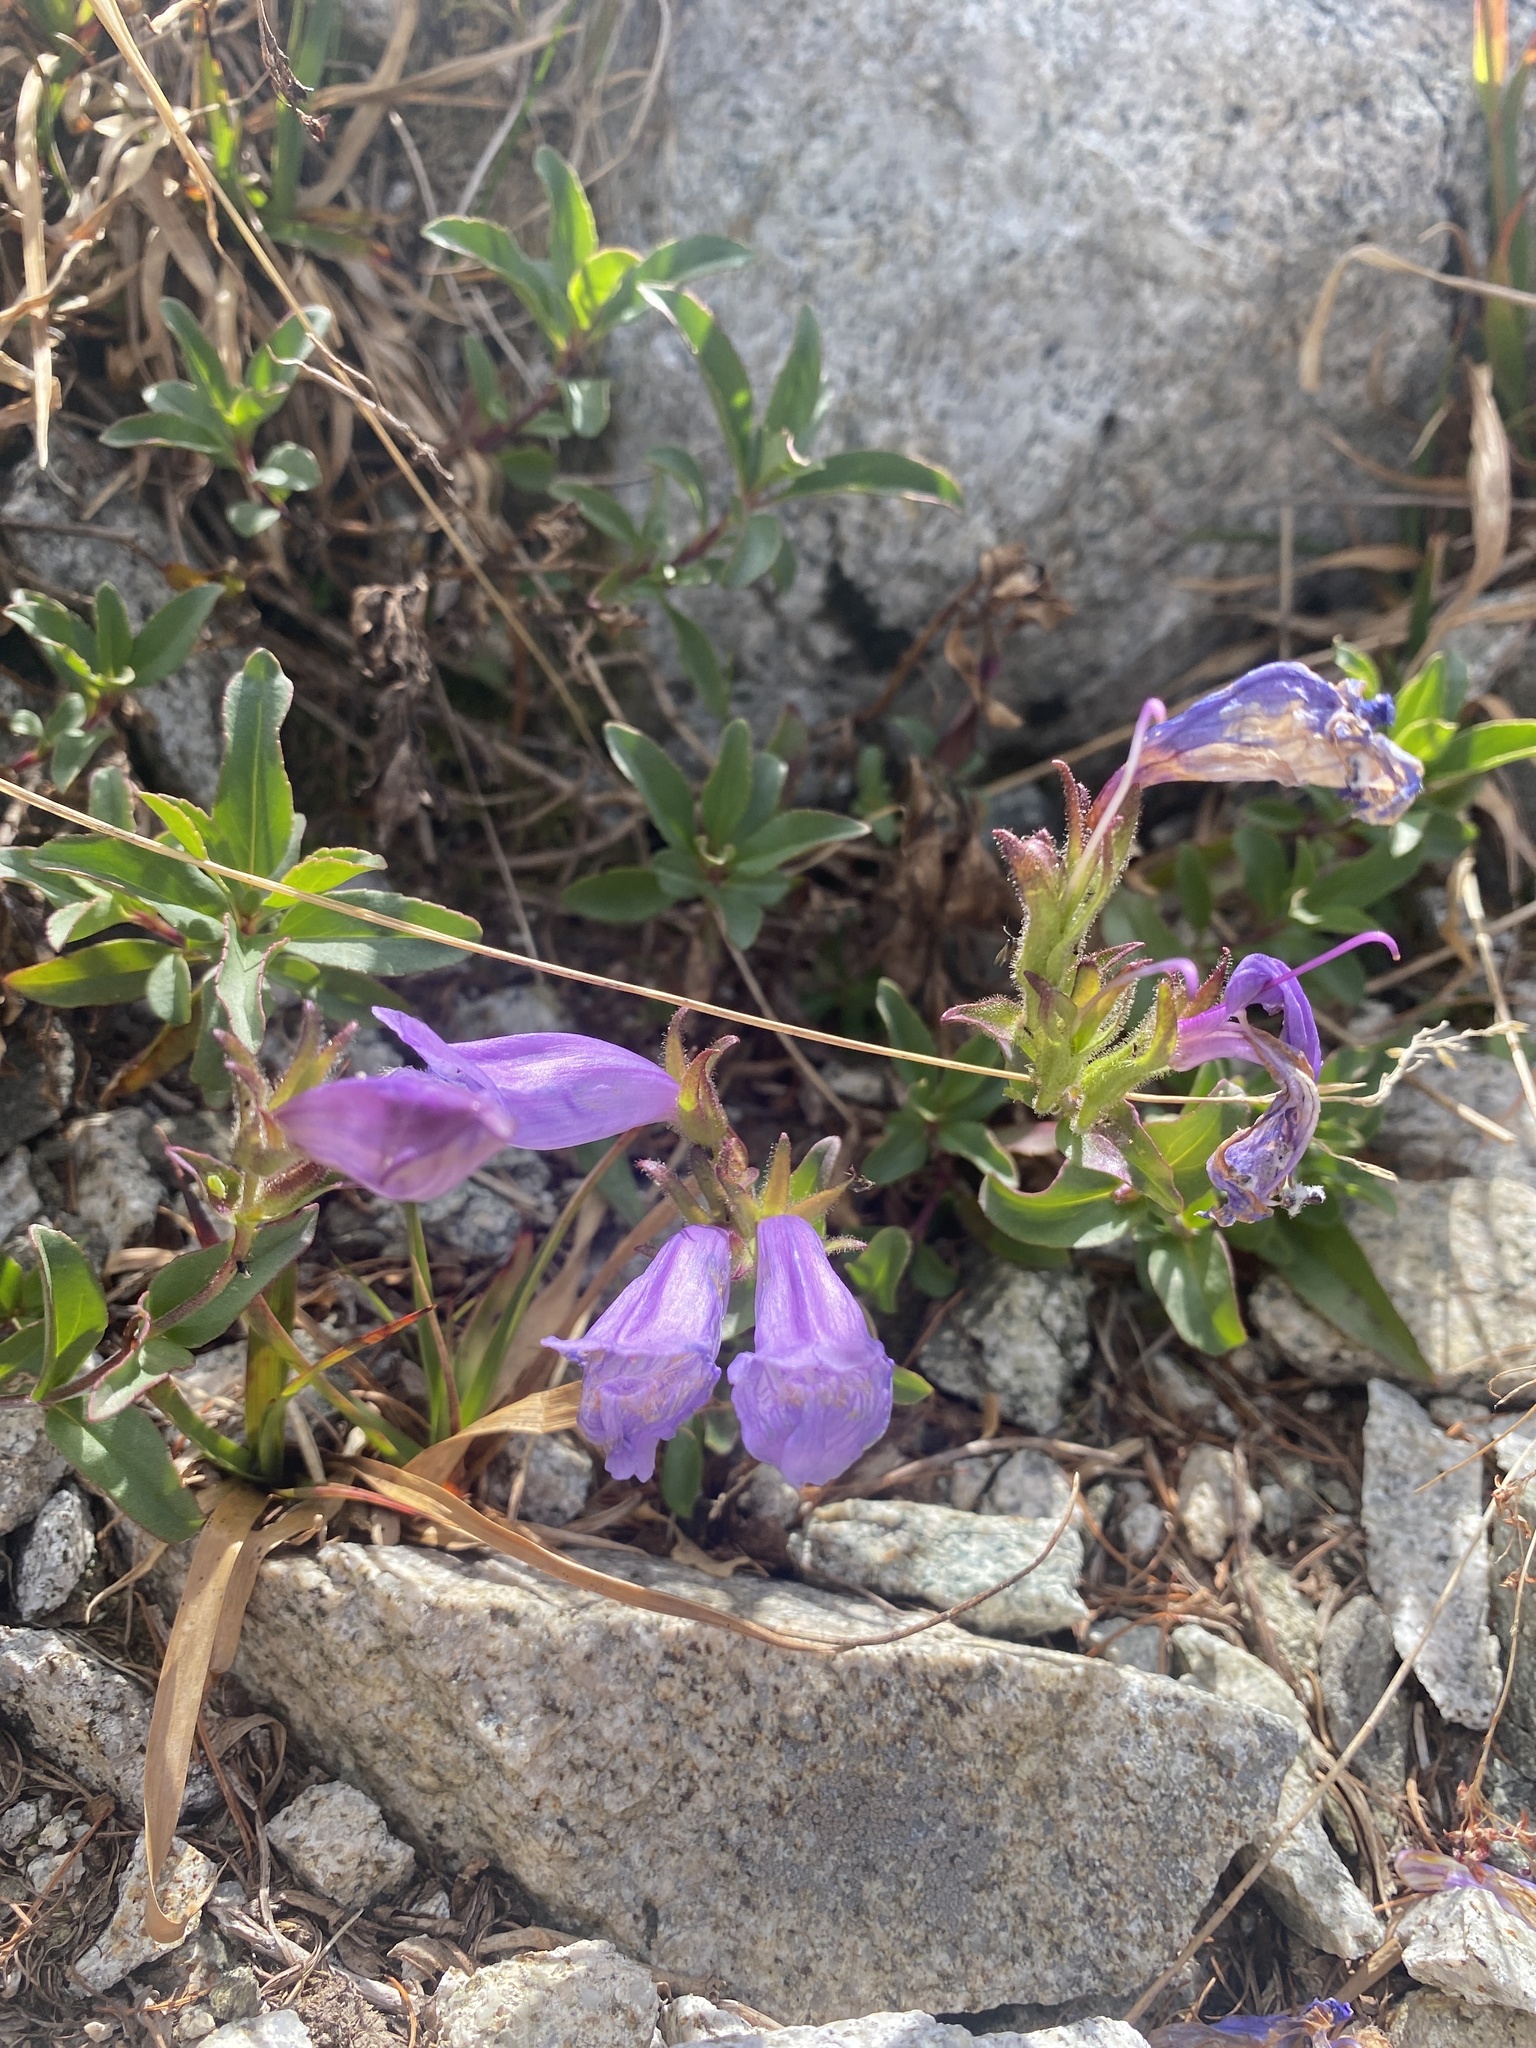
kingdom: Plantae
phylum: Tracheophyta
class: Magnoliopsida
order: Lamiales
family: Plantaginaceae
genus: Penstemon
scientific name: Penstemon ellipticus
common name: Alpine beardtongue
